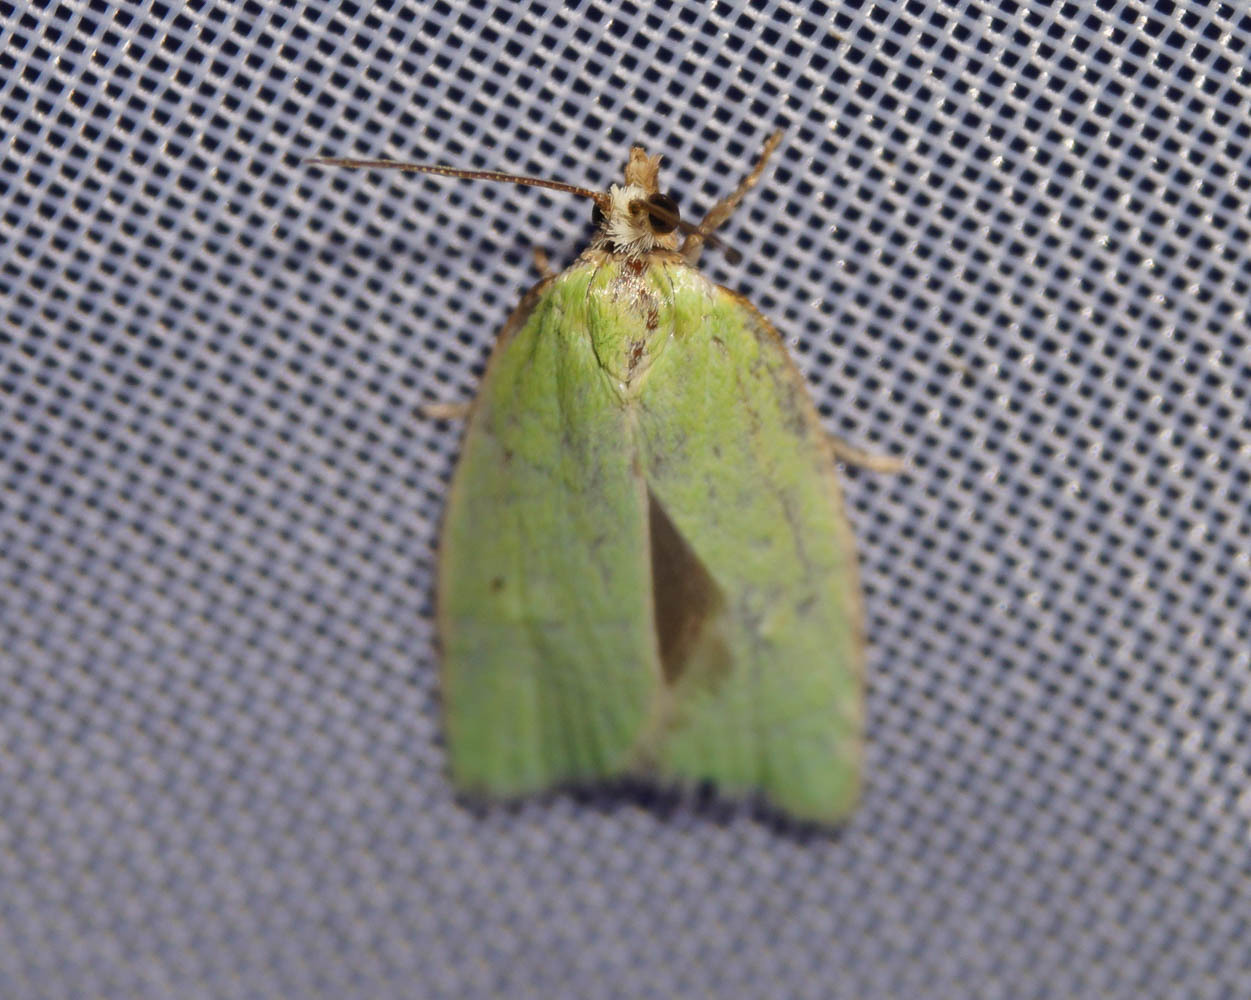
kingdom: Animalia
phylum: Arthropoda
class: Insecta
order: Lepidoptera
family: Tortricidae
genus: Tortrix
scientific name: Tortrix viridana
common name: Green oak tortrix
